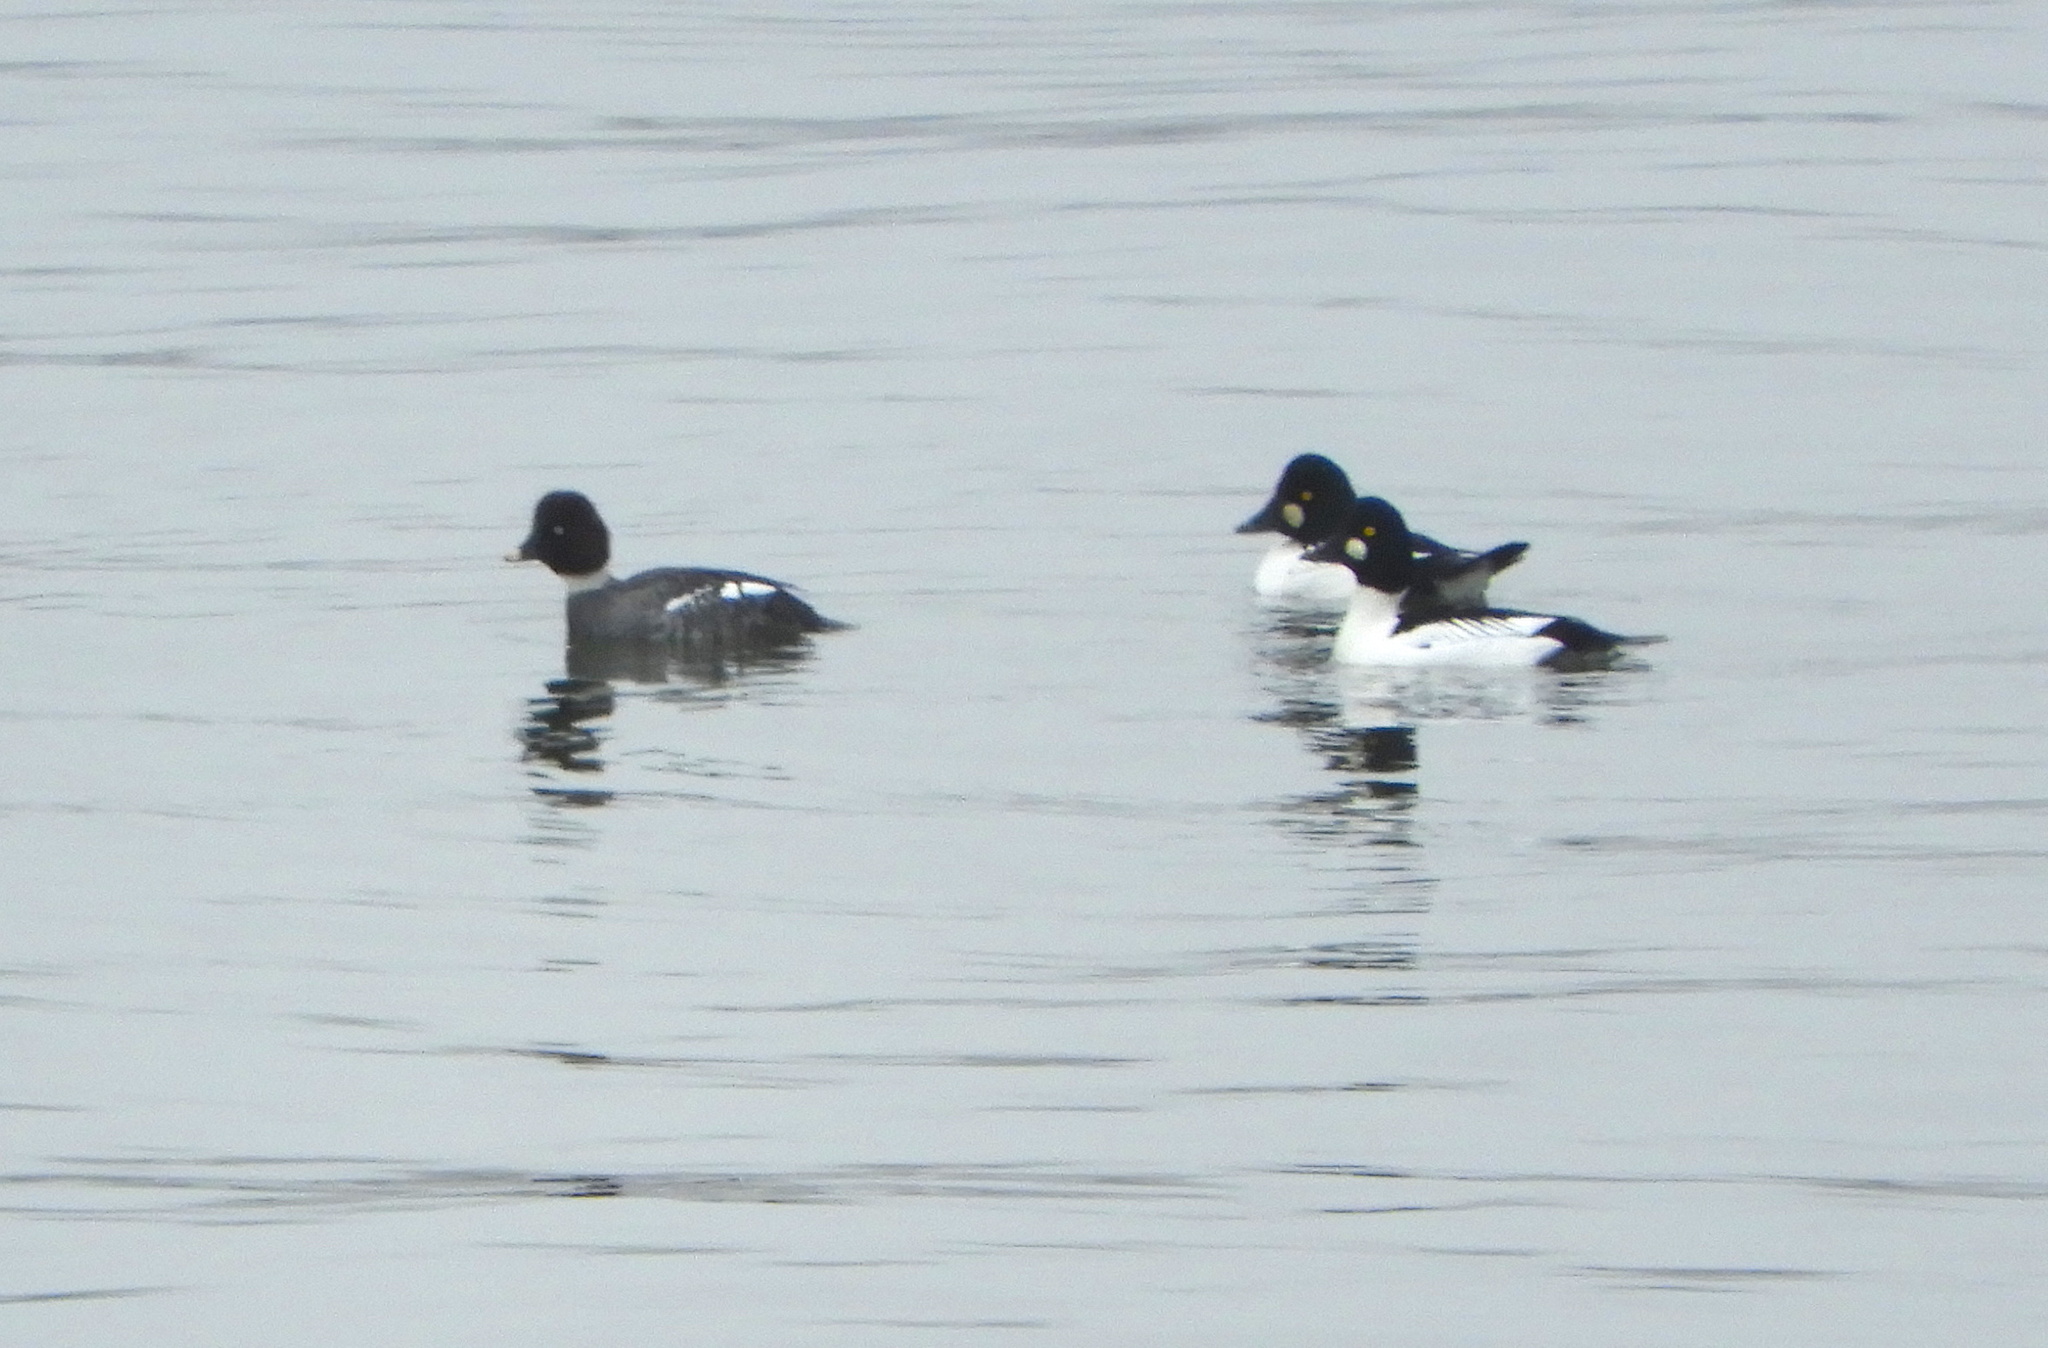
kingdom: Animalia
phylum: Chordata
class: Aves
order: Anseriformes
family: Anatidae
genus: Bucephala
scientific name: Bucephala clangula
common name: Common goldeneye
